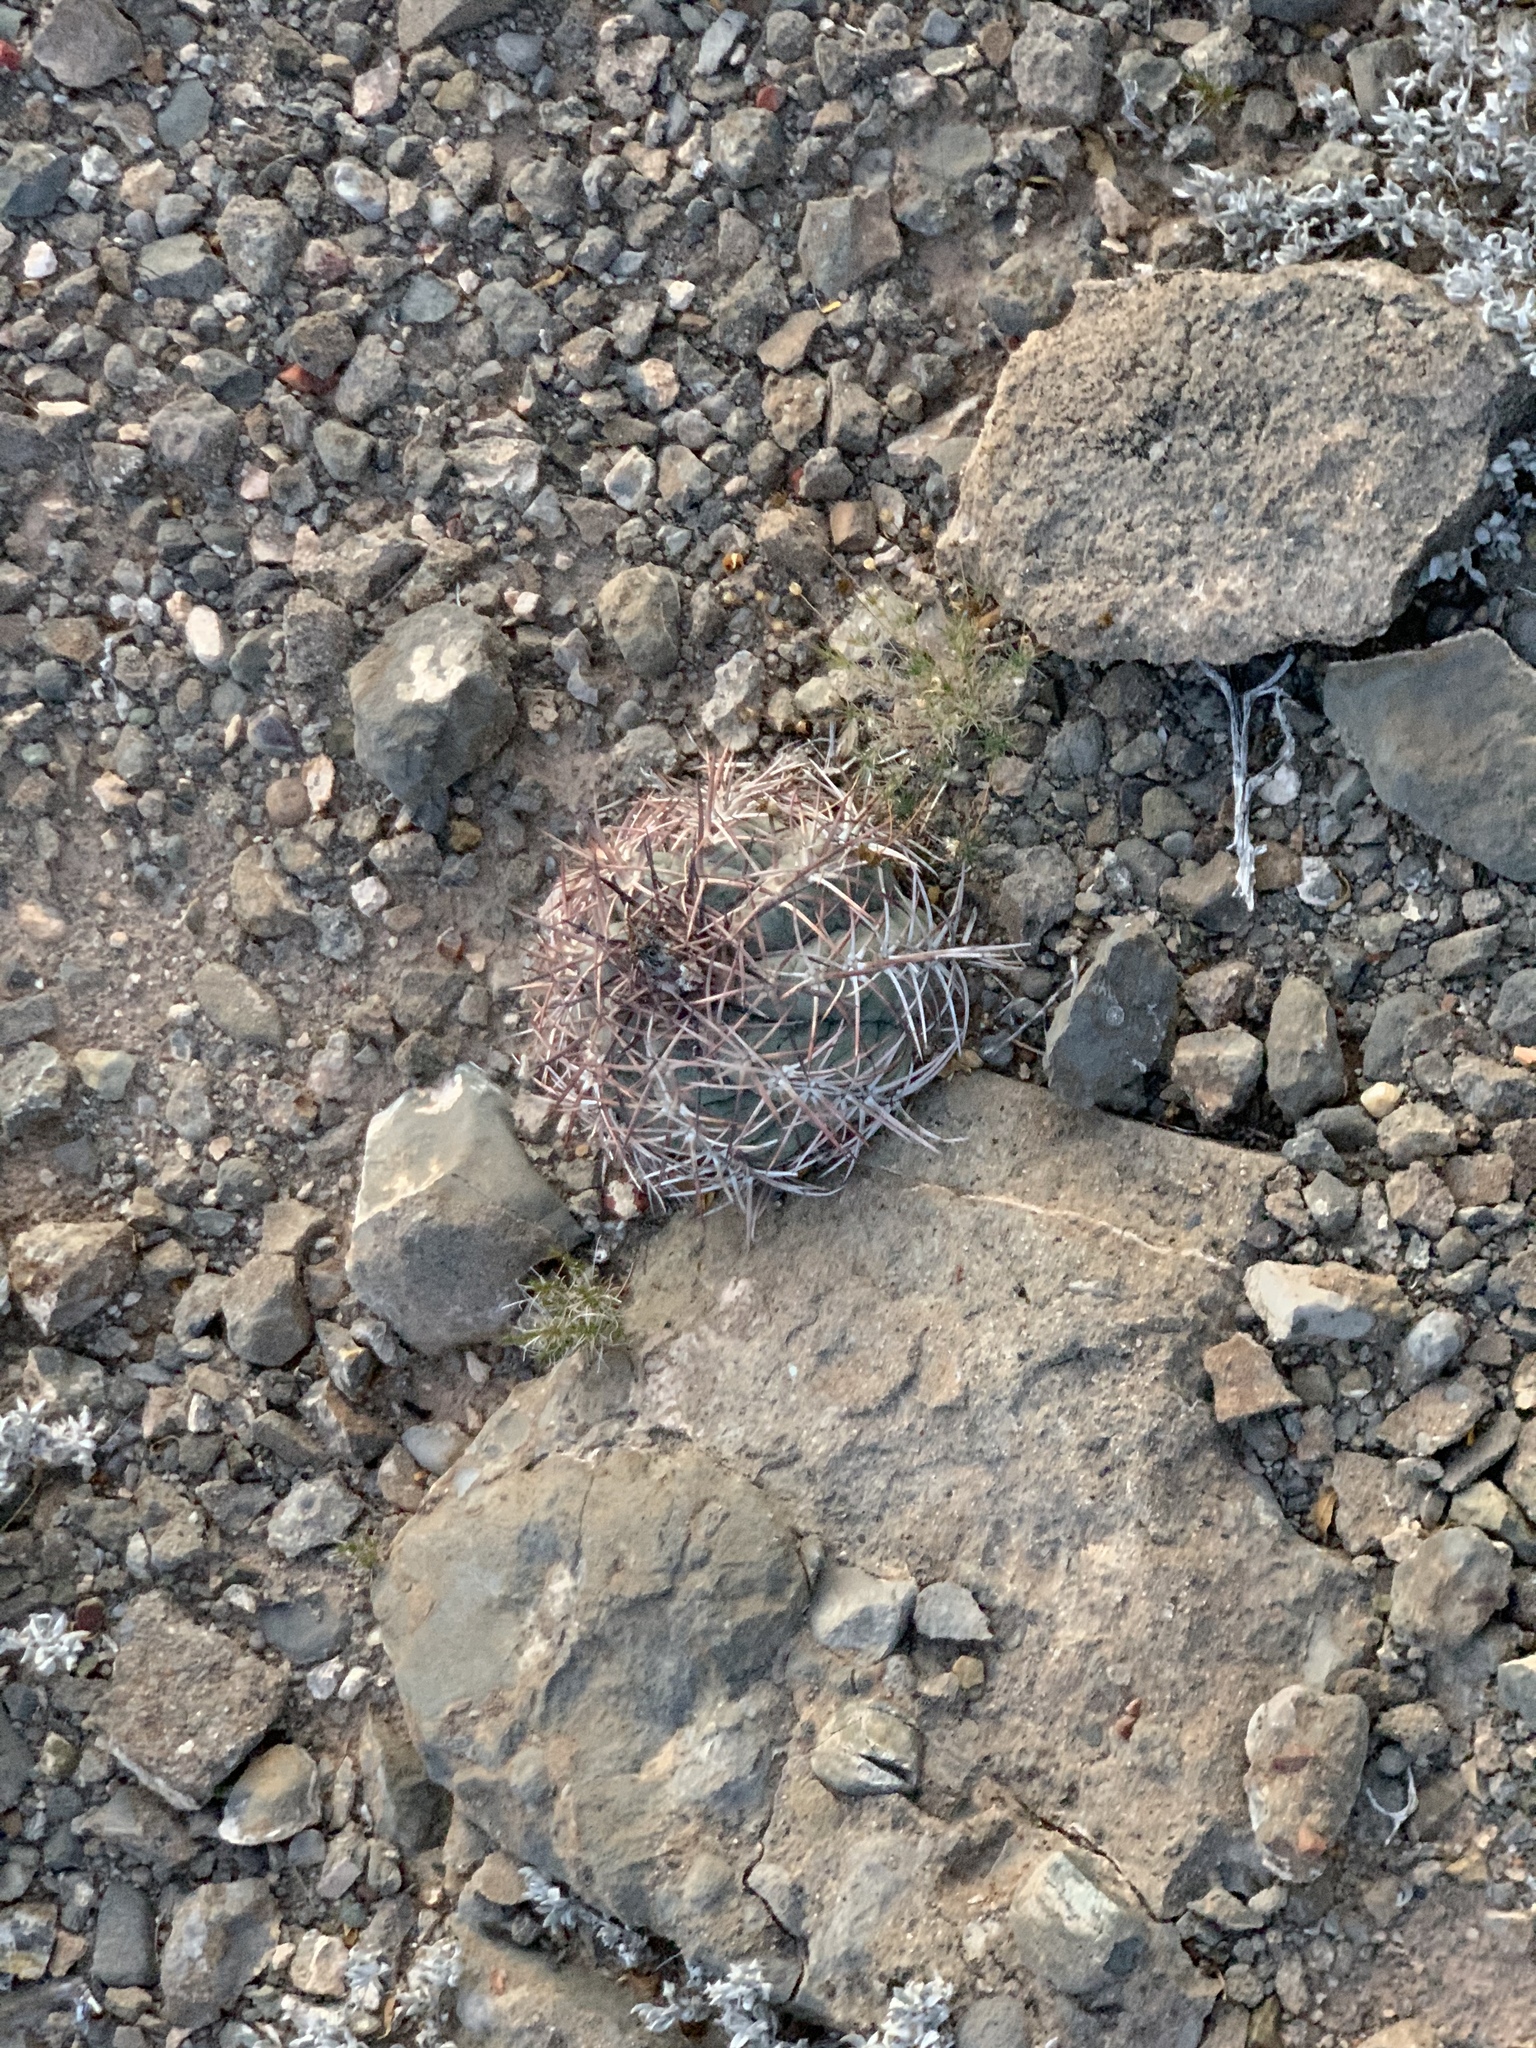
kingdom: Plantae
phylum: Tracheophyta
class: Magnoliopsida
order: Caryophyllales
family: Cactaceae
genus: Echinocactus
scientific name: Echinocactus horizonthalonius
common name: Devilshead
